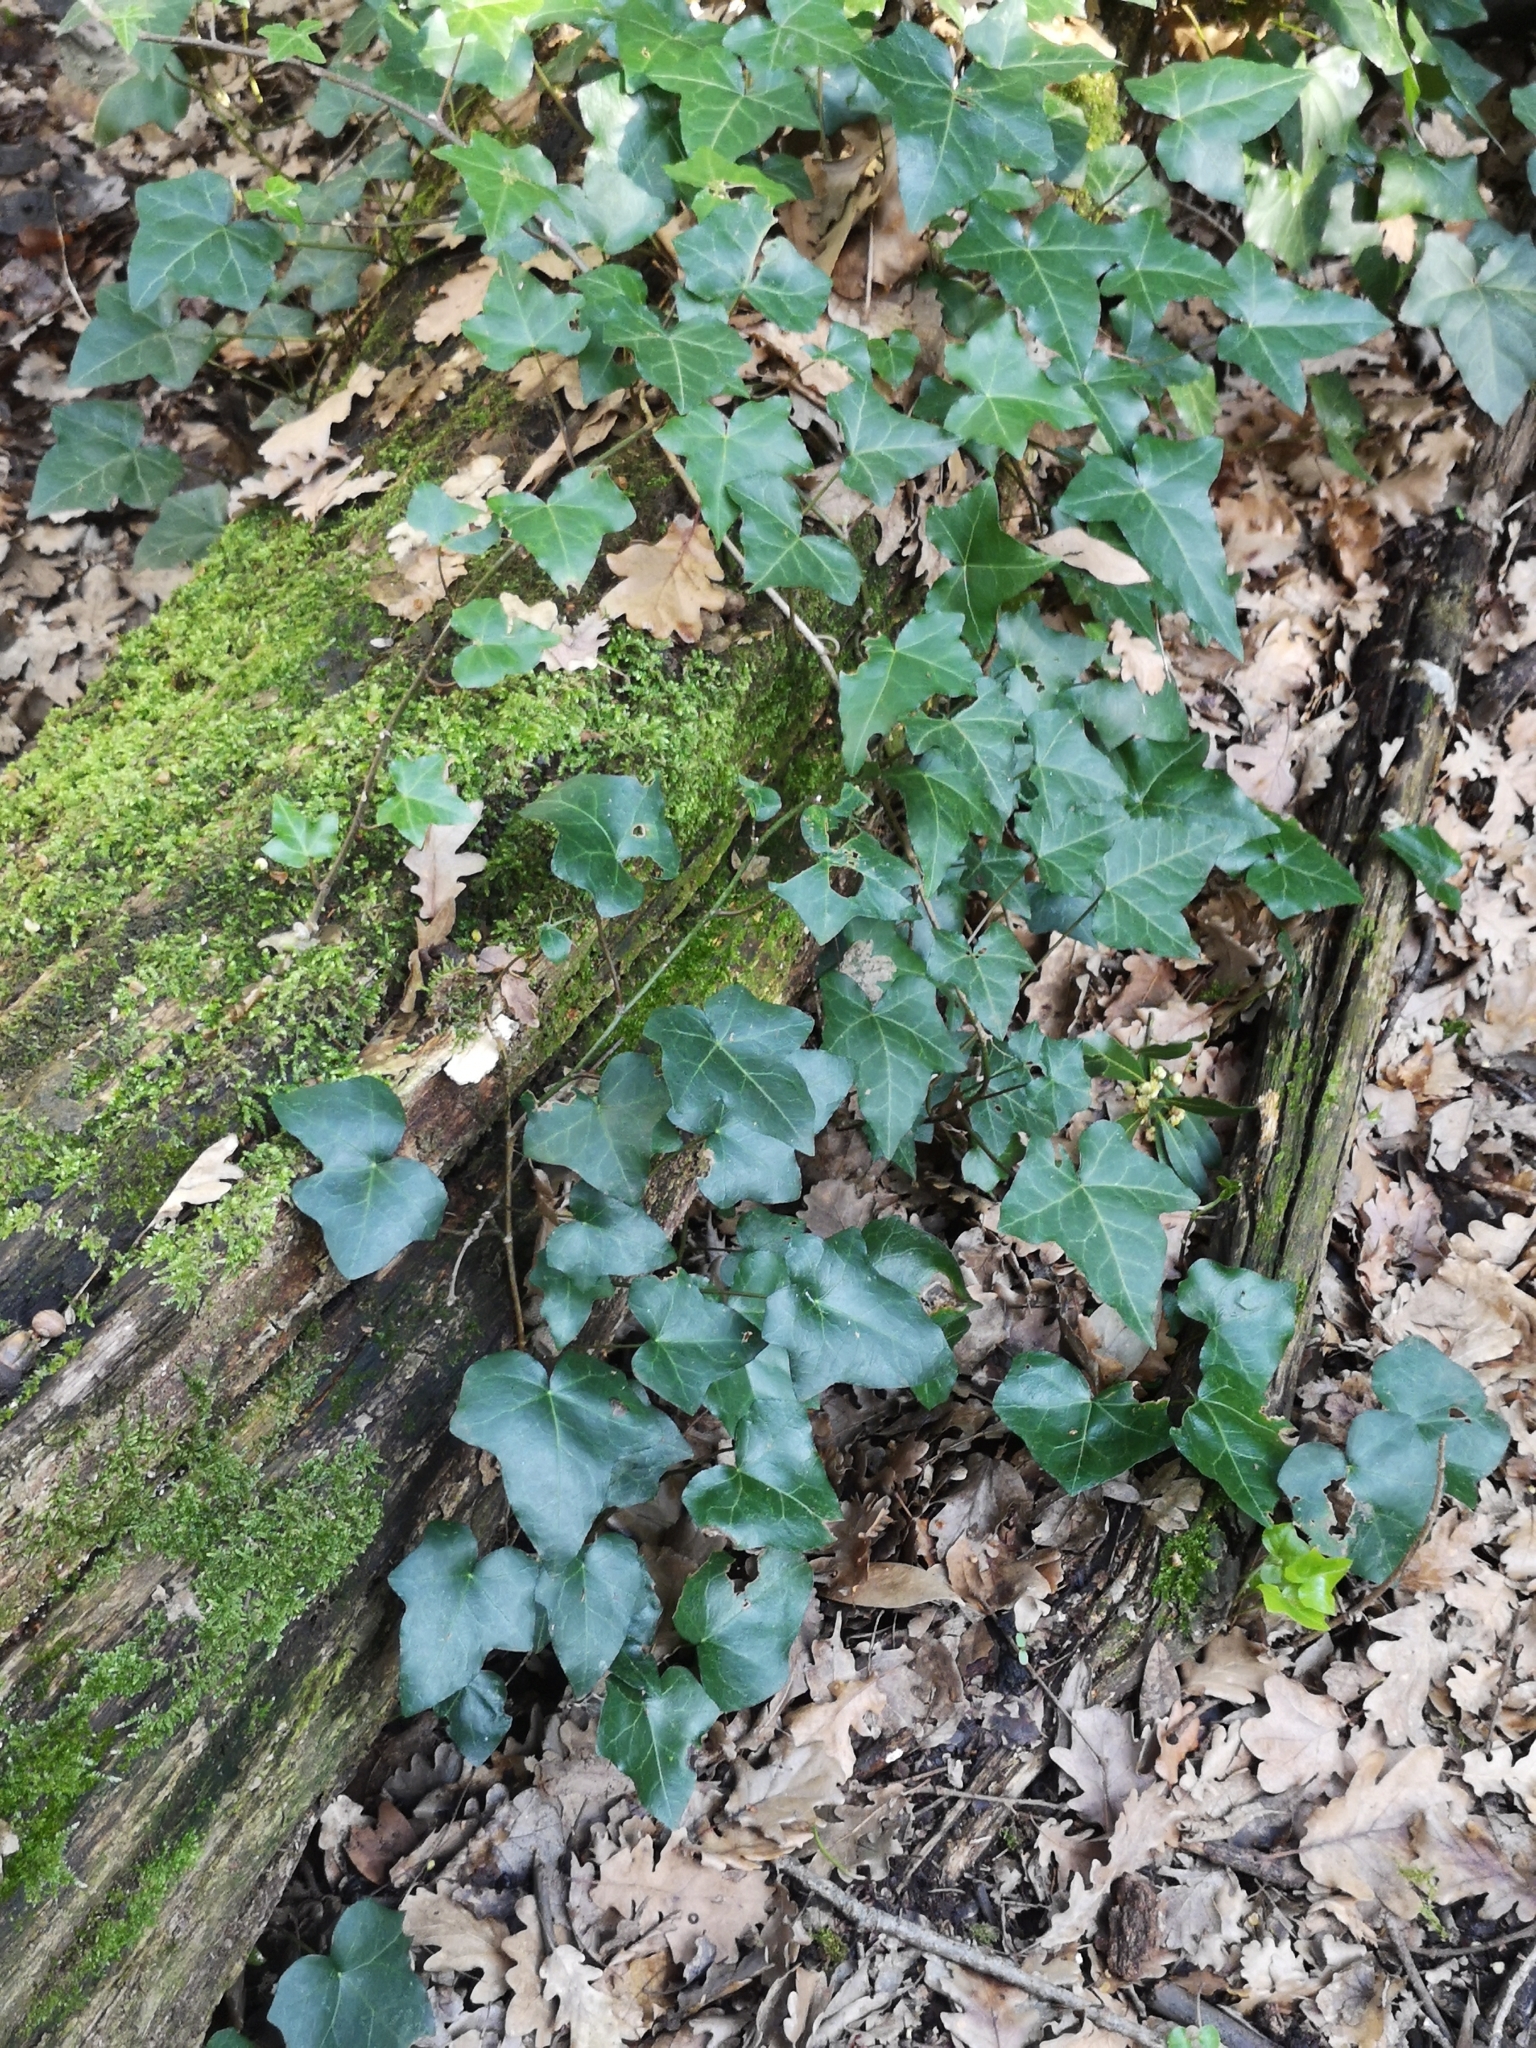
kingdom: Plantae
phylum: Tracheophyta
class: Magnoliopsida
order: Apiales
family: Araliaceae
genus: Hedera
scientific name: Hedera helix
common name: Ivy
